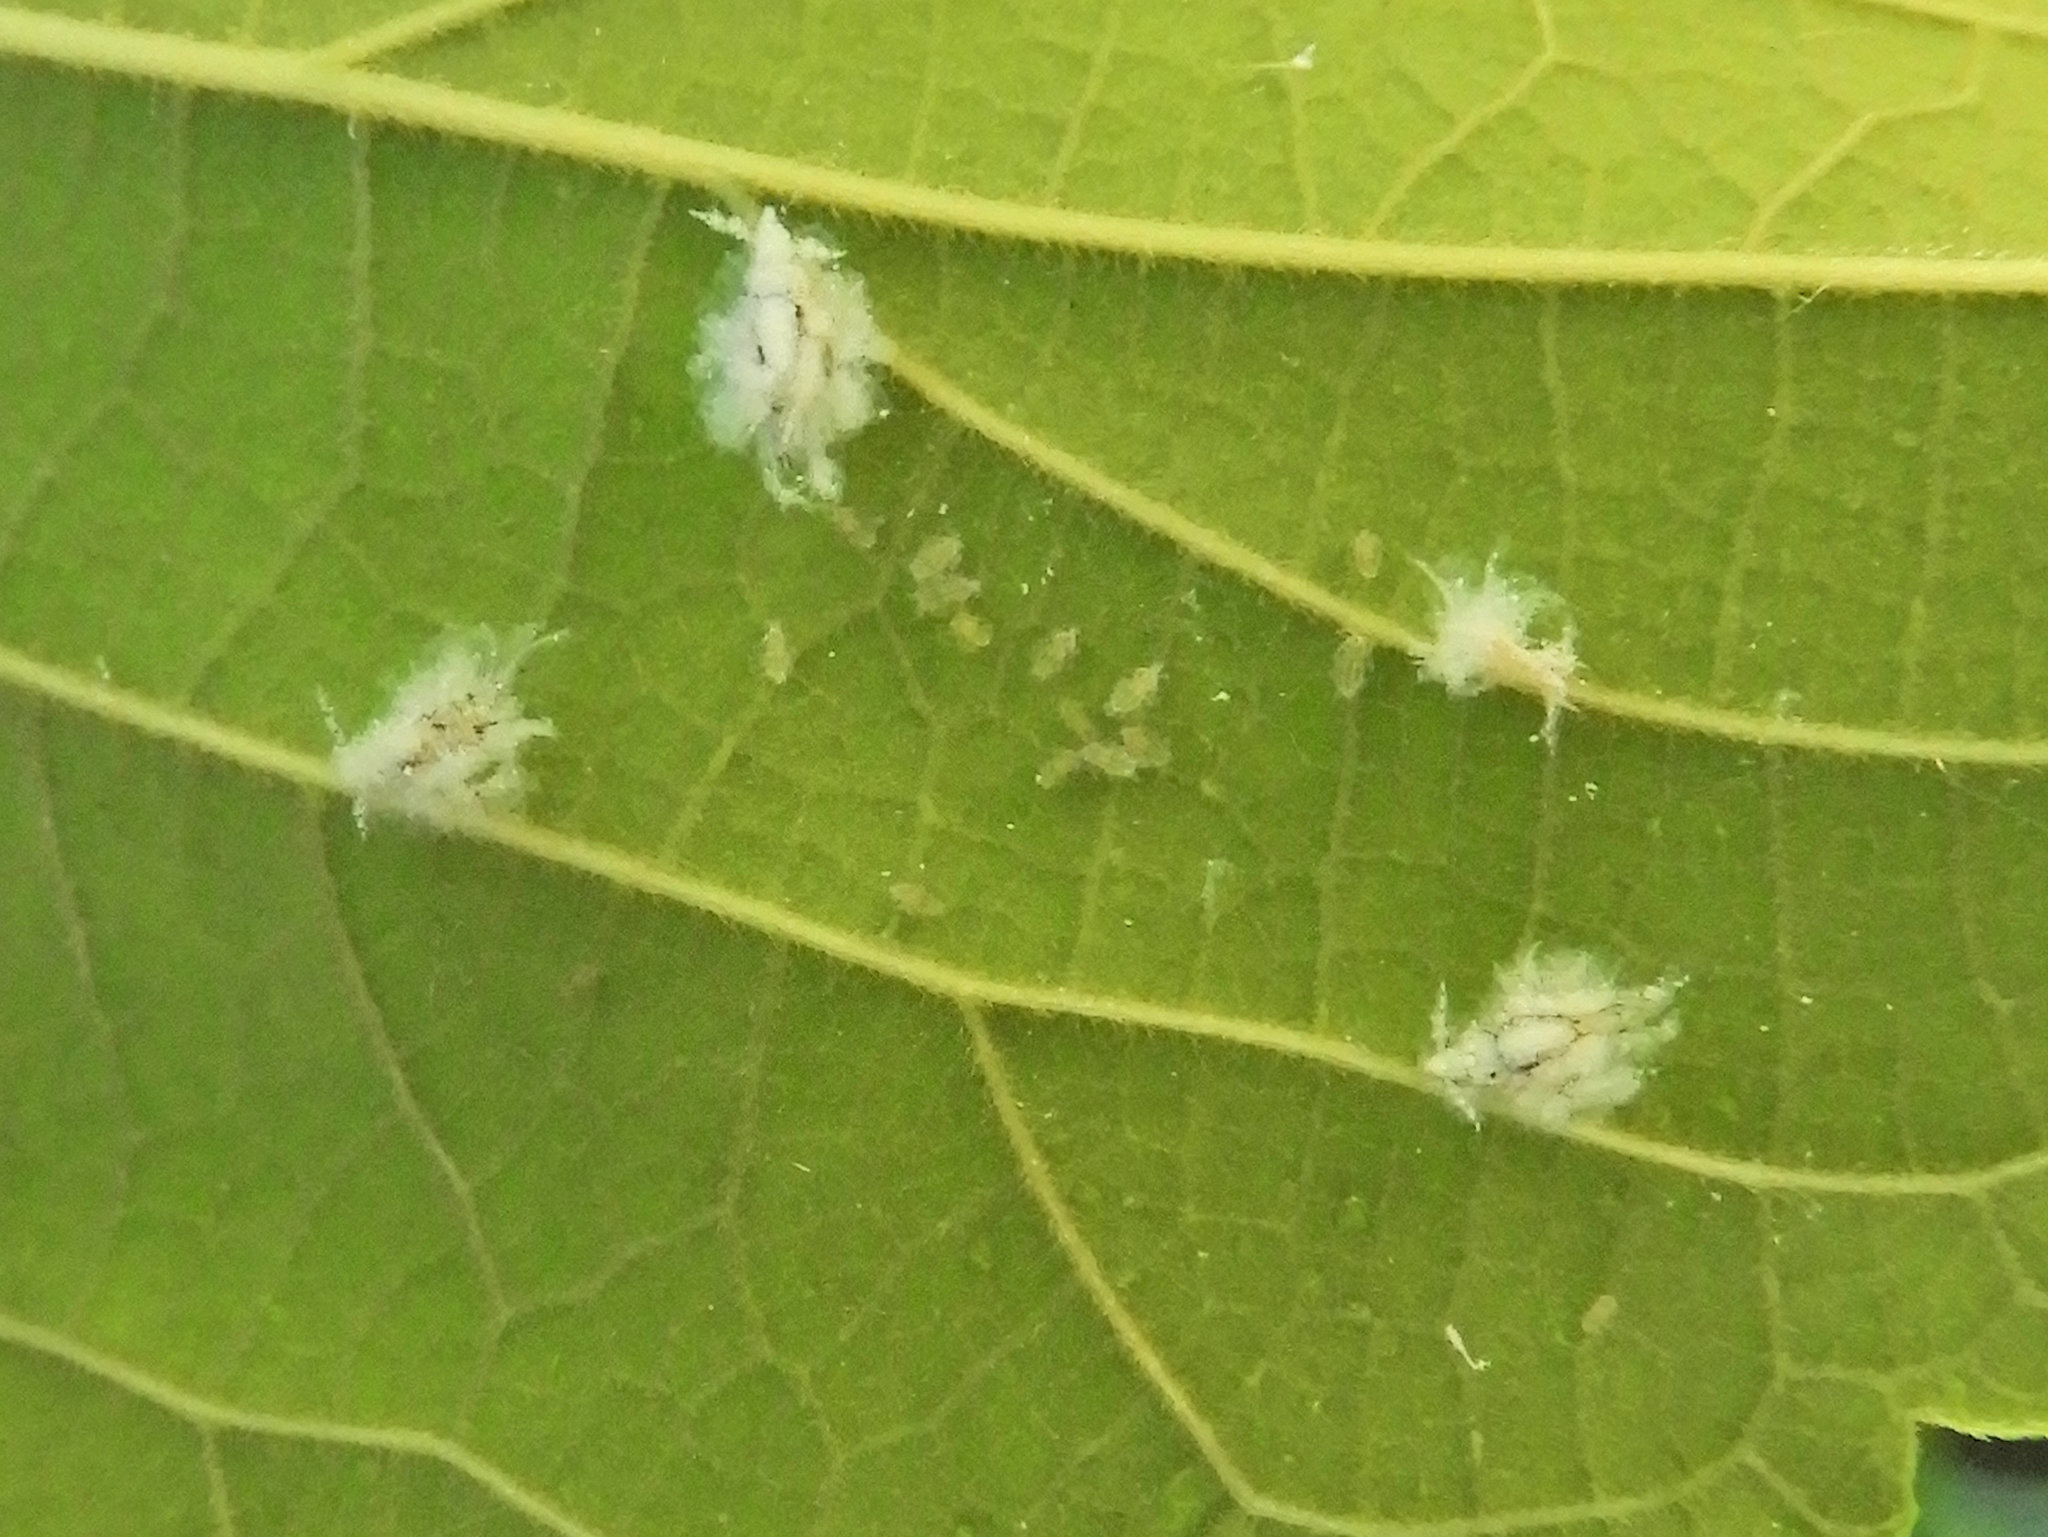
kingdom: Animalia
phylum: Arthropoda
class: Insecta
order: Hemiptera
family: Aphididae
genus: Shivaphis
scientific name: Shivaphis celti
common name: Asian wooly hackberry aphid
